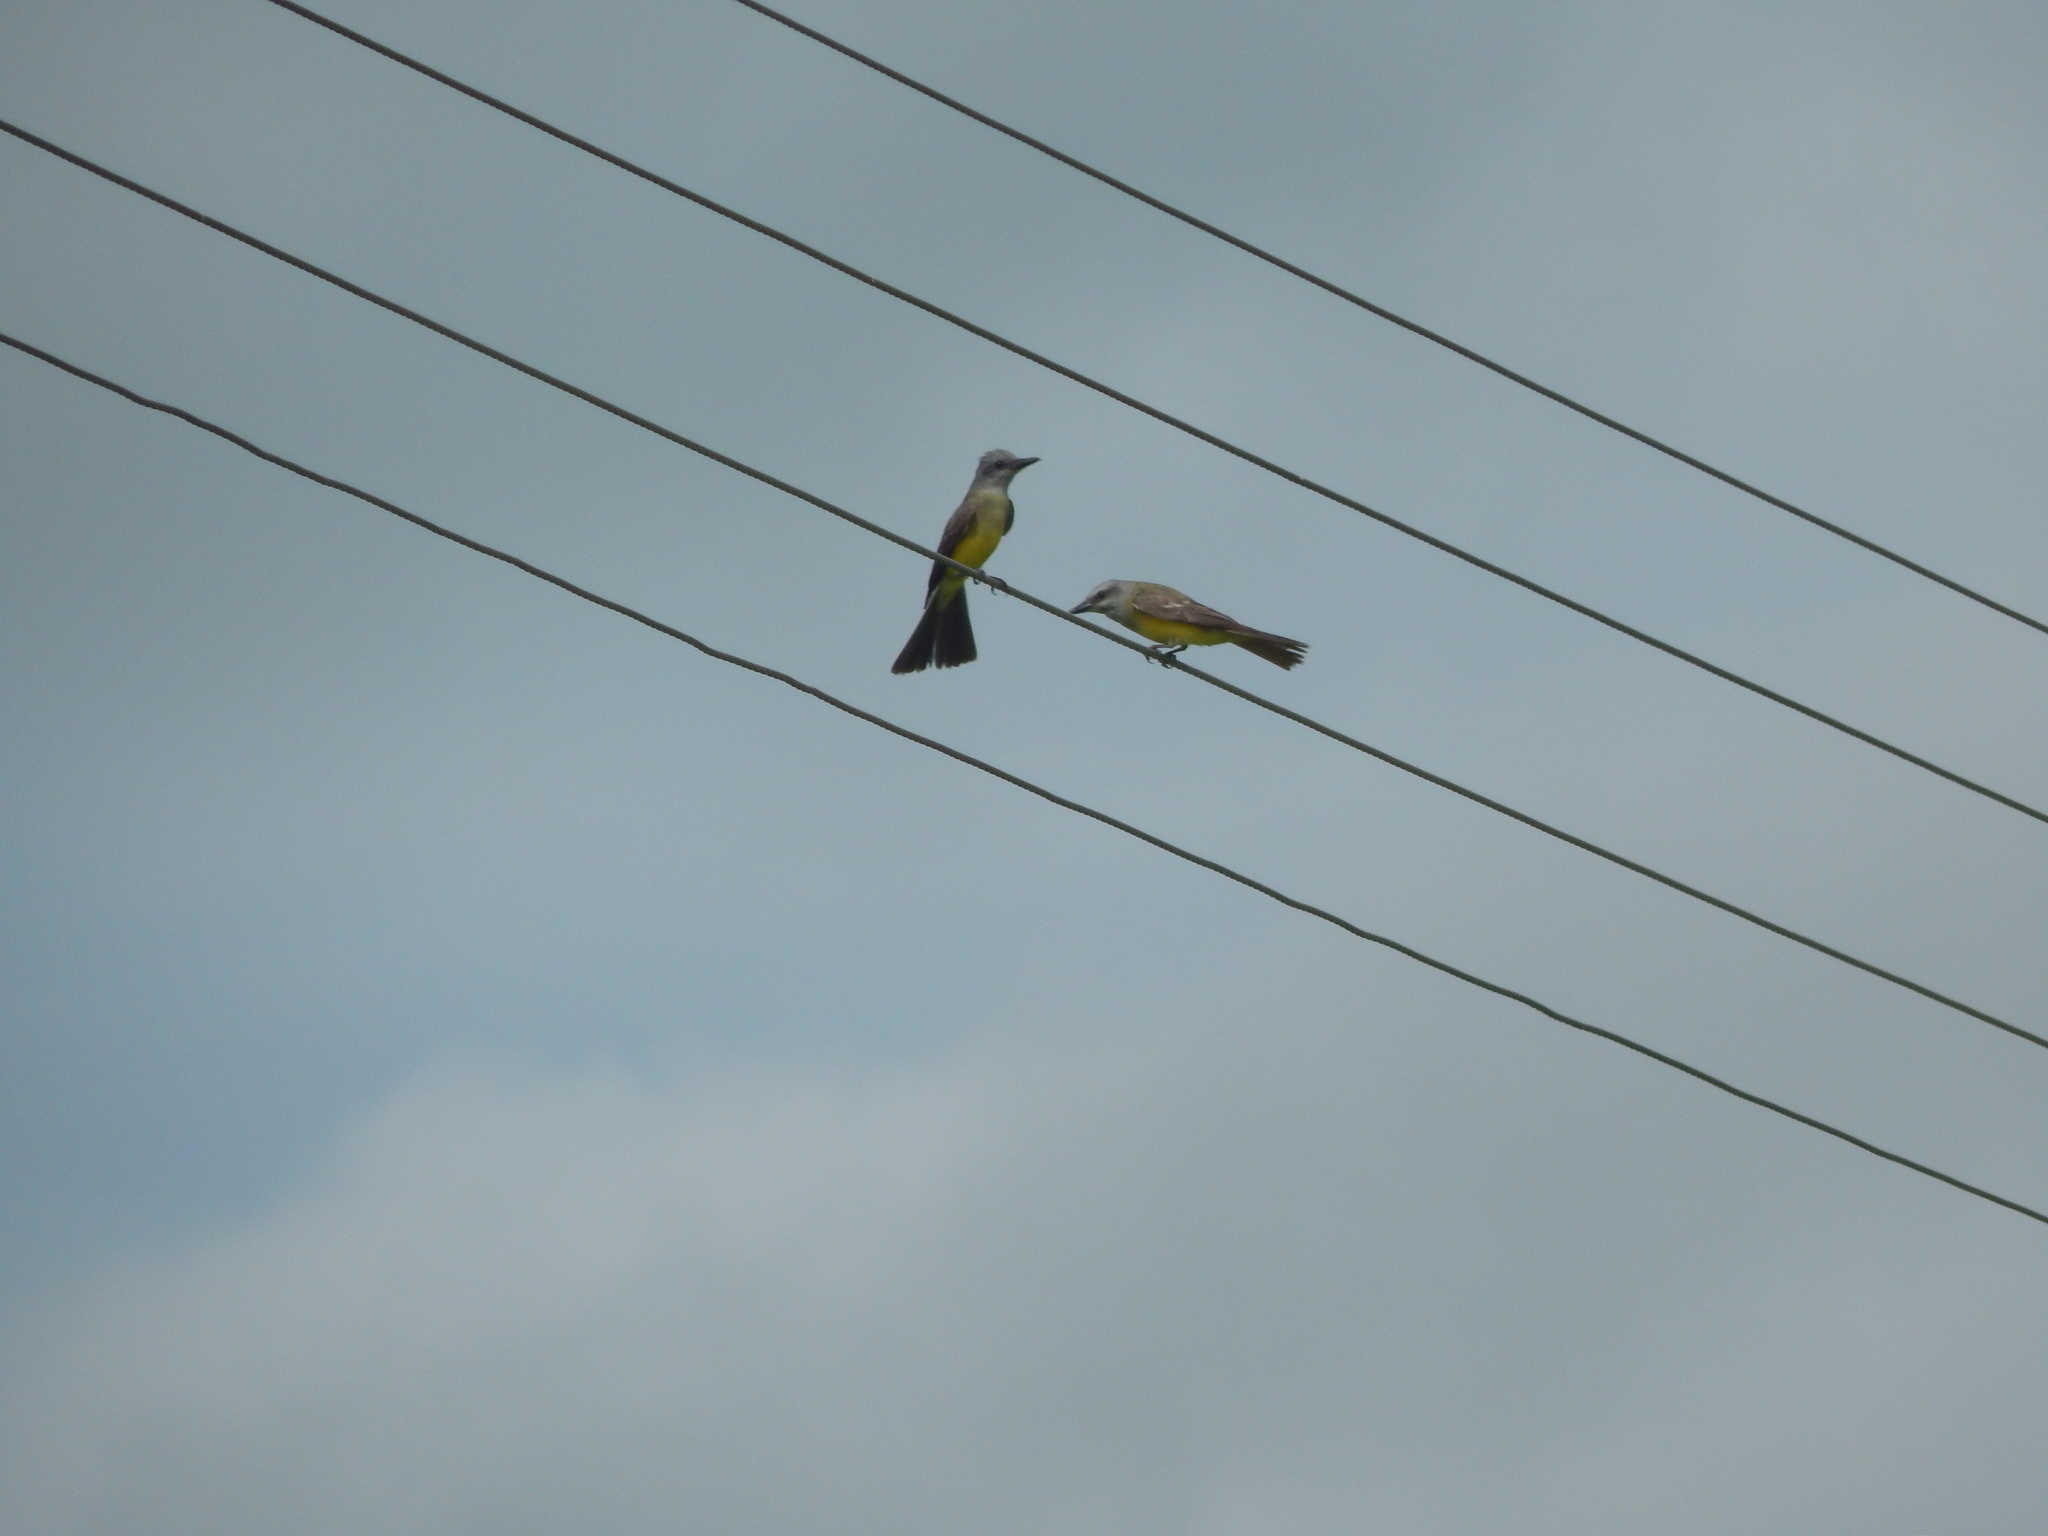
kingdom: Animalia
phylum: Chordata
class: Aves
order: Passeriformes
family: Tyrannidae
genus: Tyrannus
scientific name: Tyrannus melancholicus
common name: Tropical kingbird
